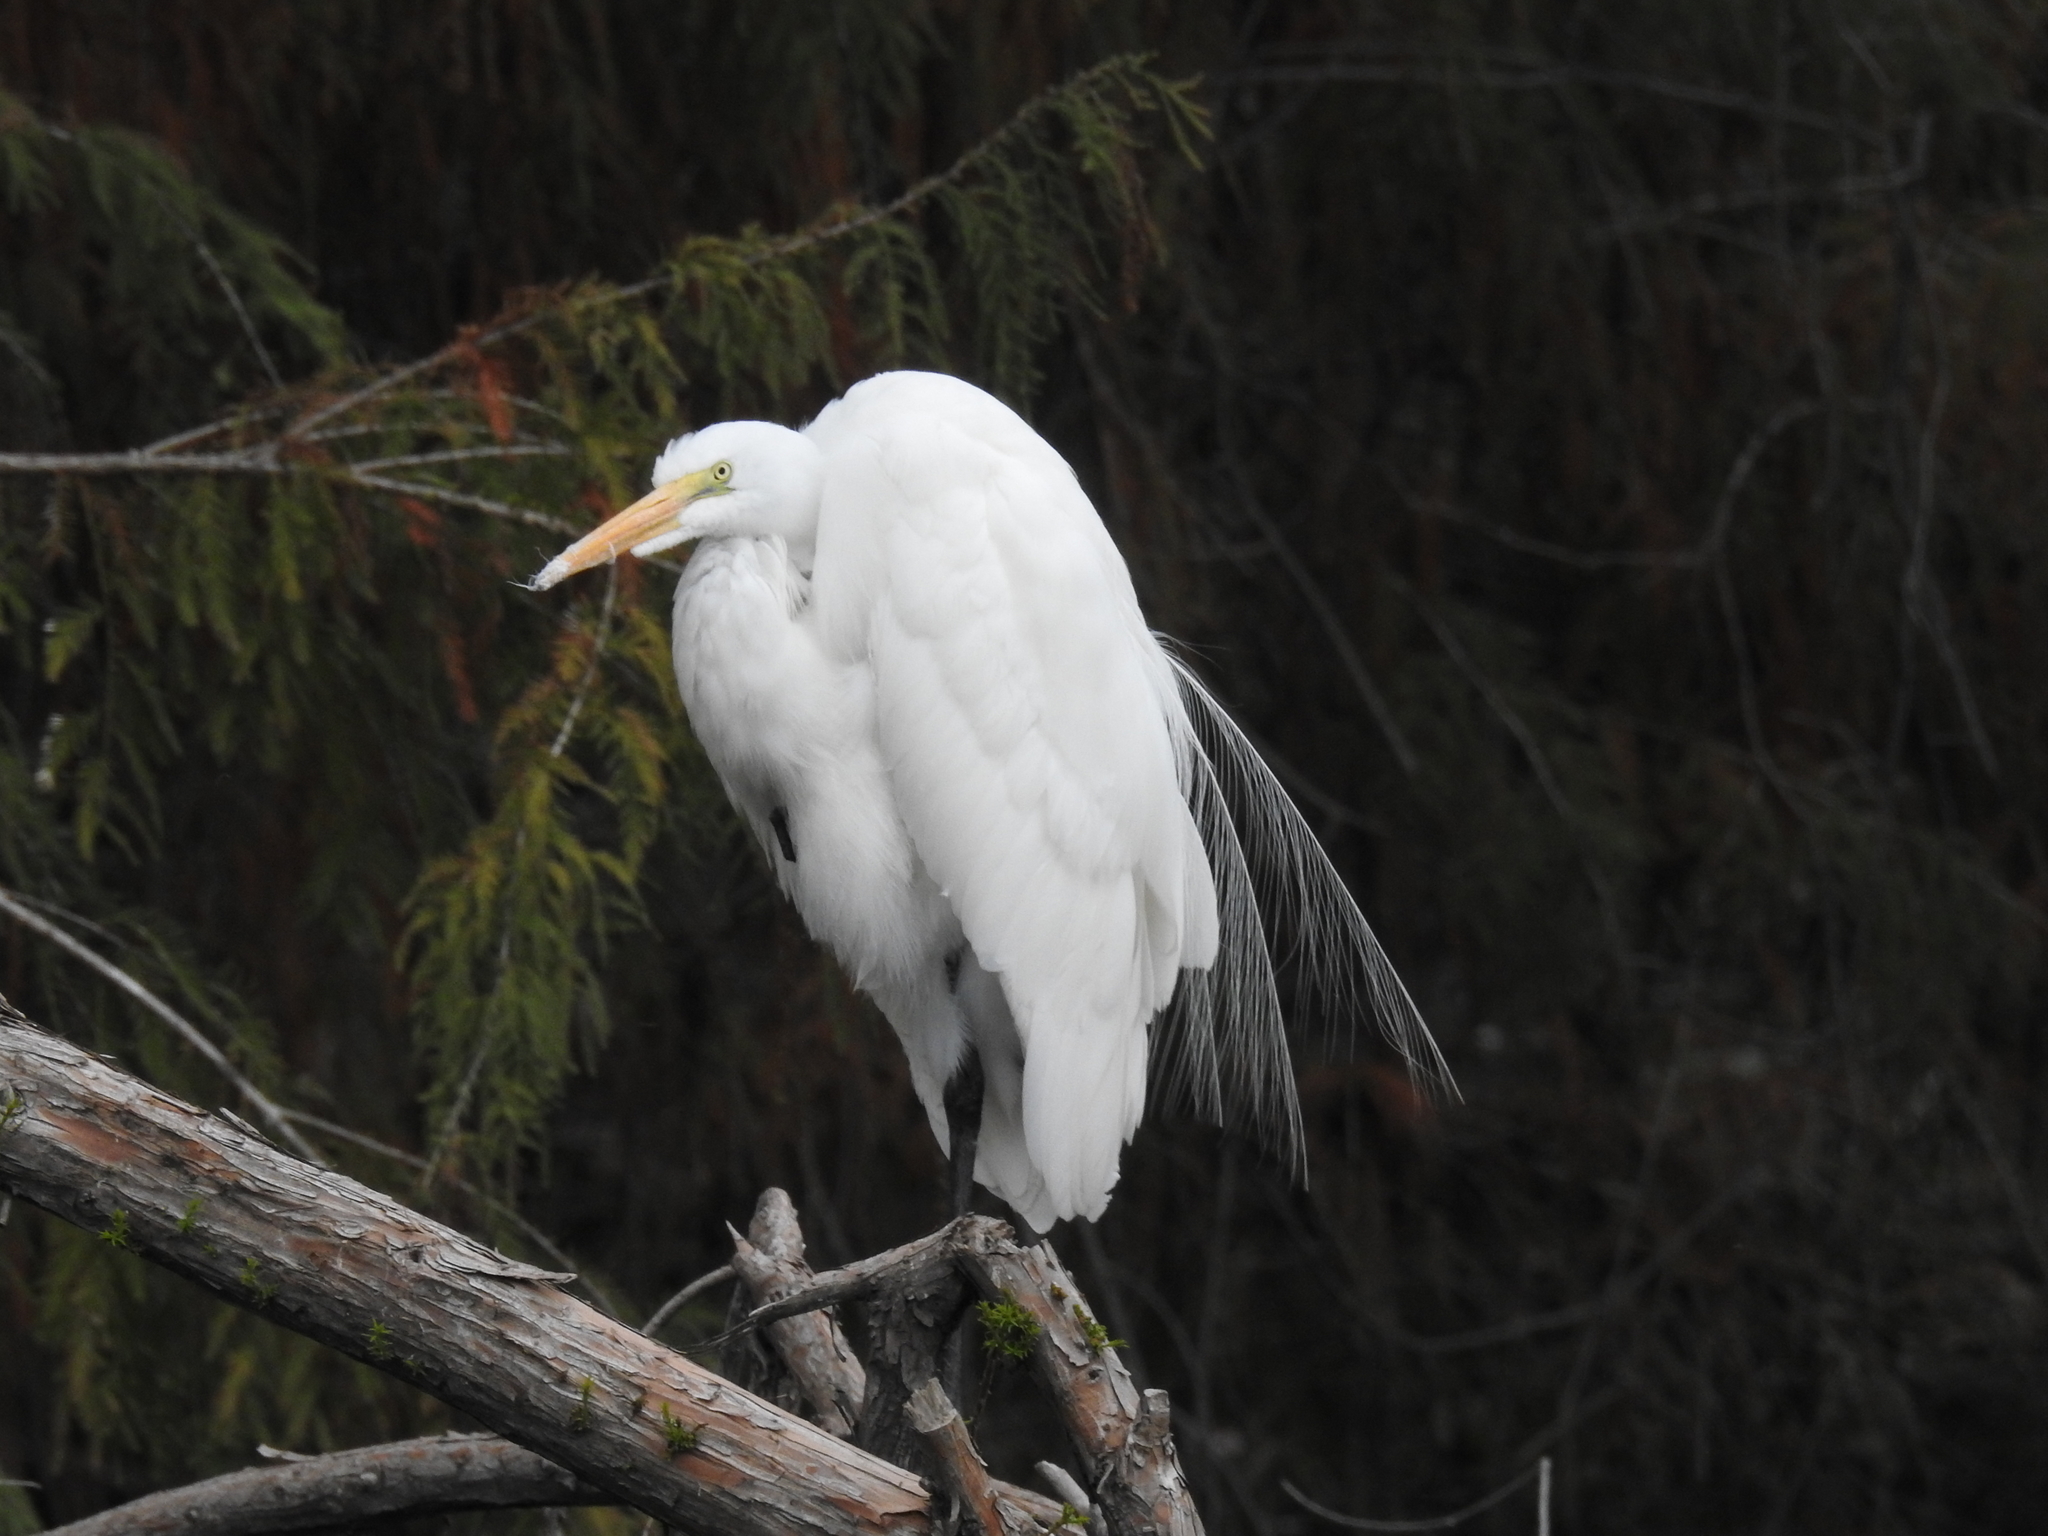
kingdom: Animalia
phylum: Chordata
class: Aves
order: Pelecaniformes
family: Ardeidae
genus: Ardea
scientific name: Ardea alba
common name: Great egret
